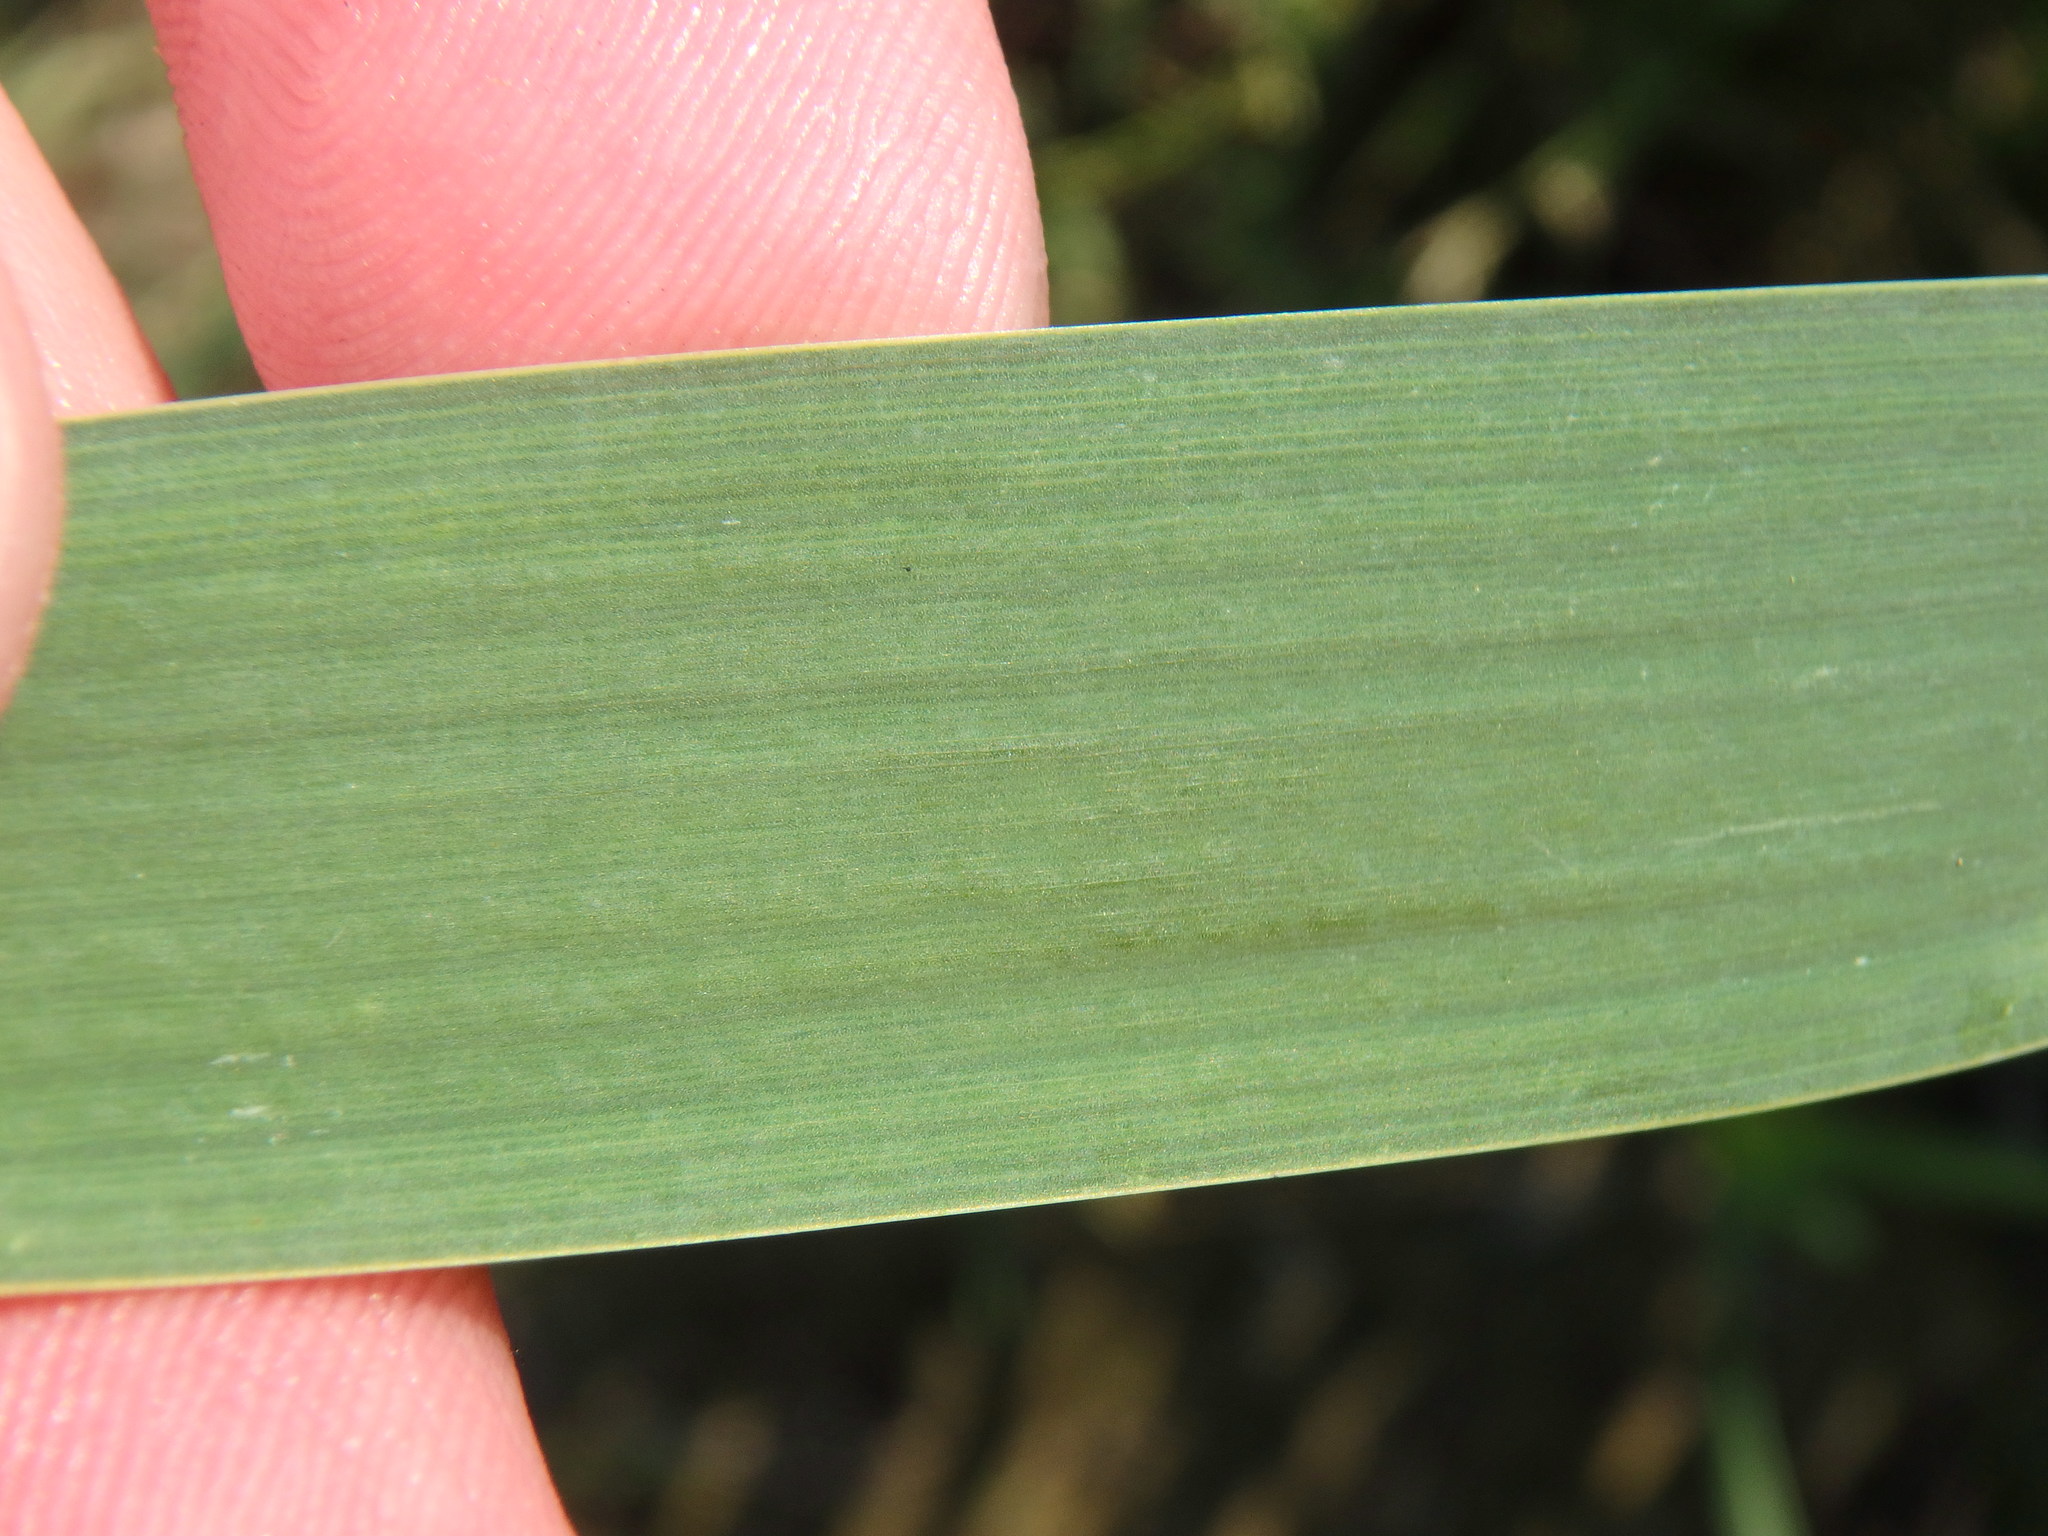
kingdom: Plantae
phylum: Tracheophyta
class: Liliopsida
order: Poales
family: Typhaceae
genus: Typha
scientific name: Typha latifolia
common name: Broadleaf cattail
